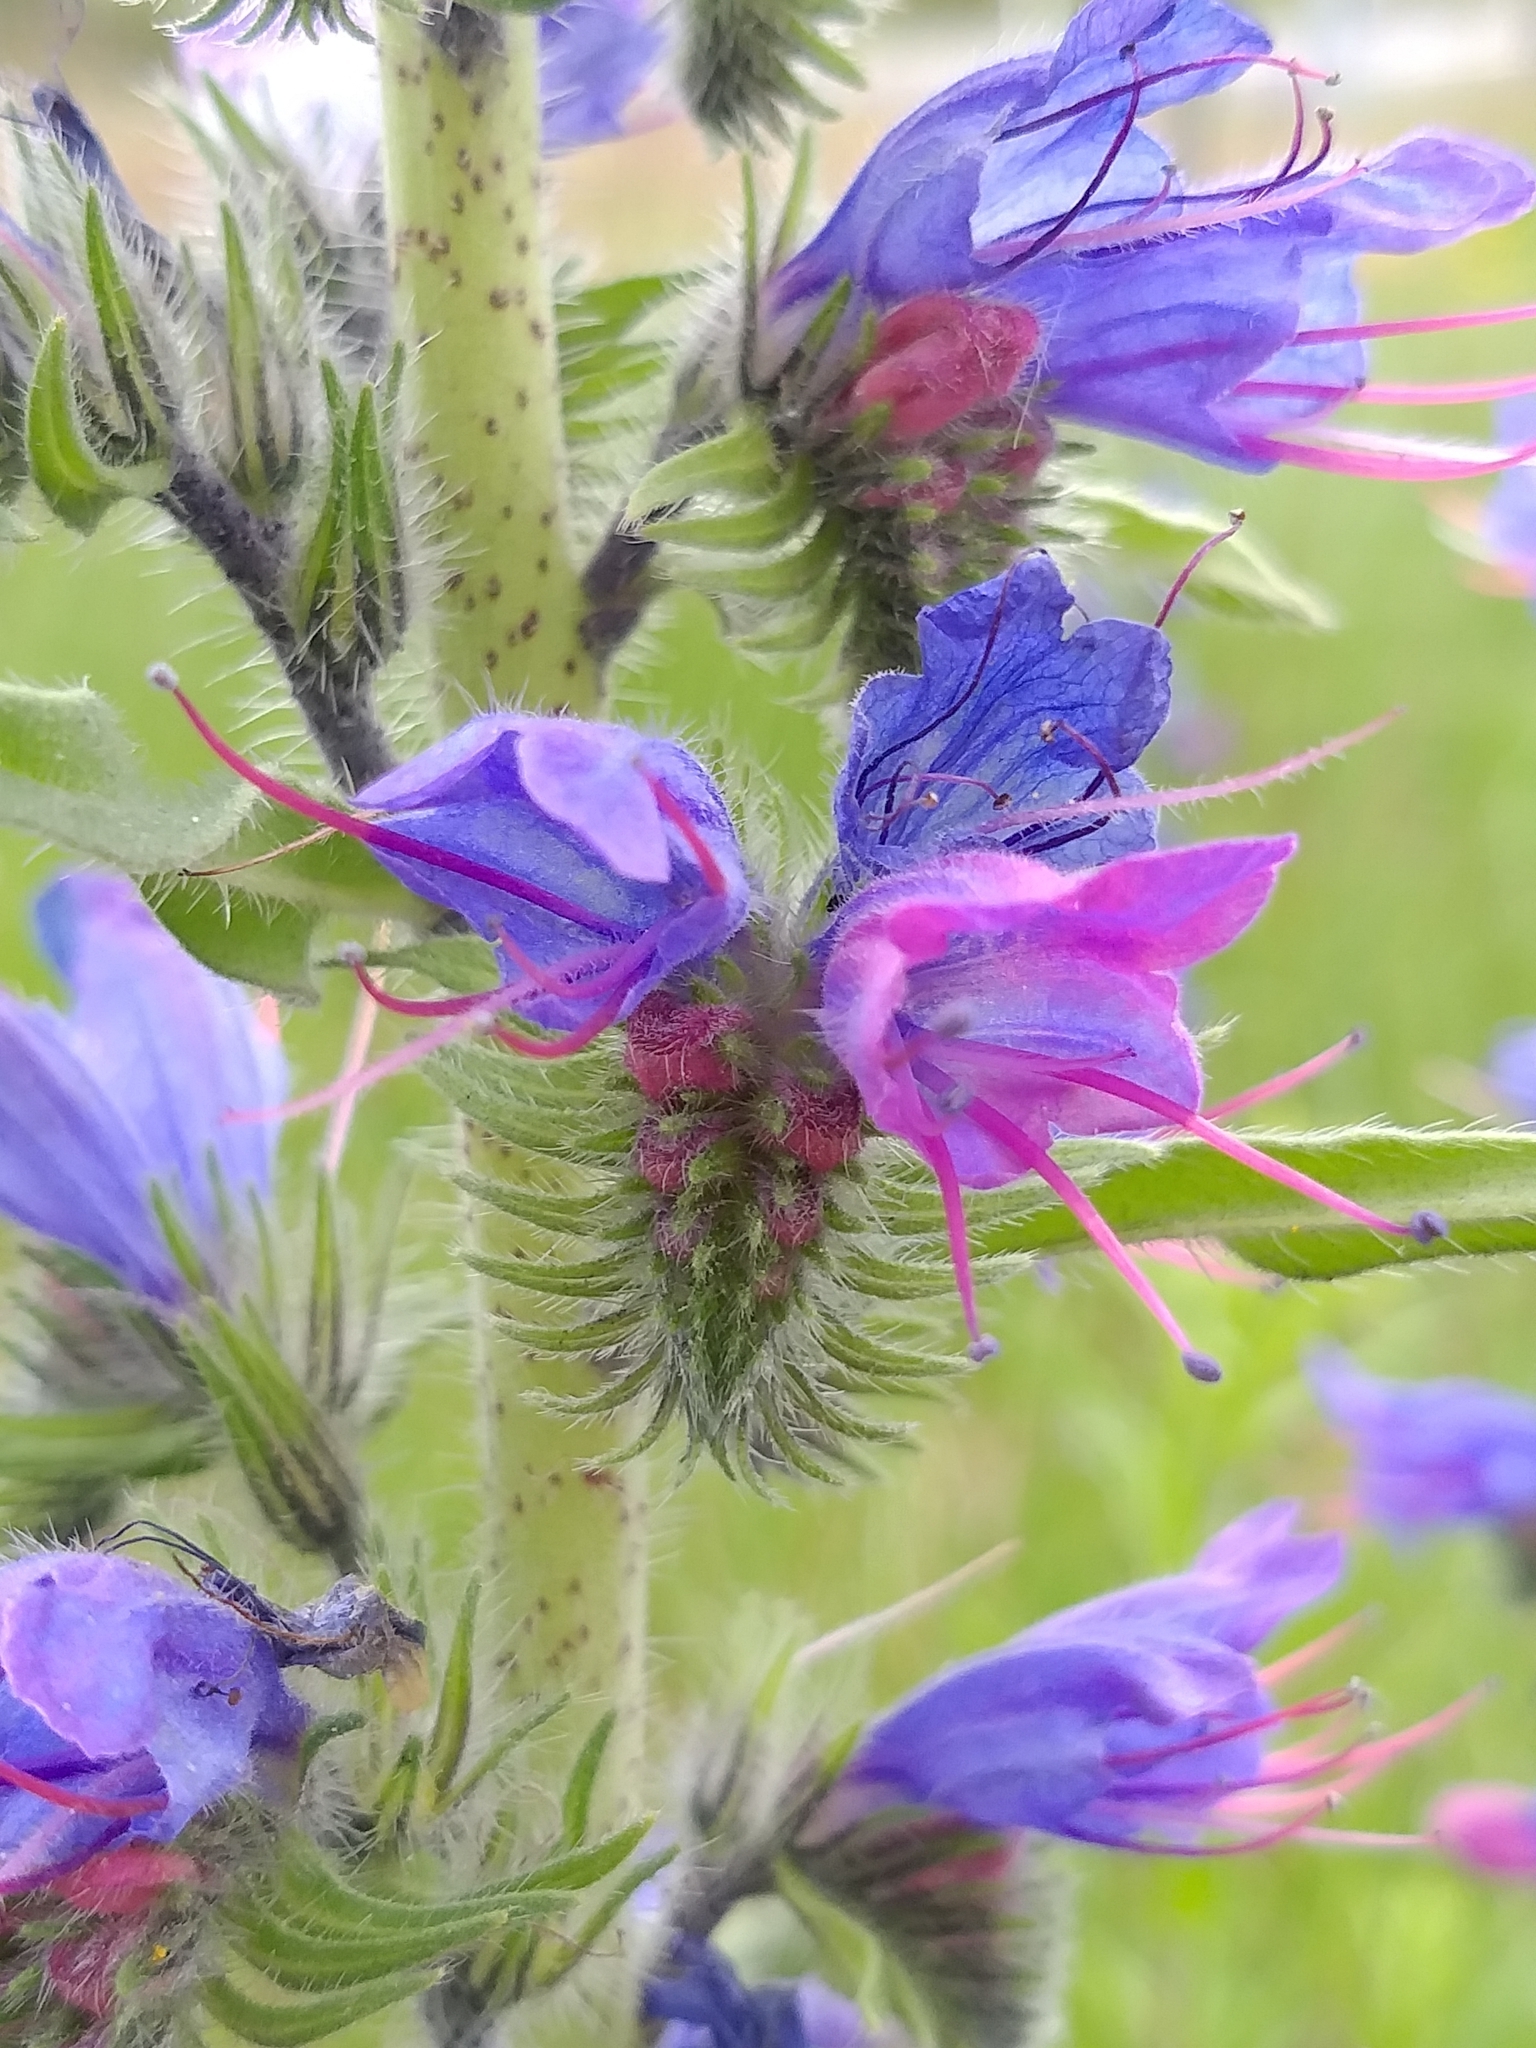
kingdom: Plantae
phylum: Tracheophyta
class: Magnoliopsida
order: Boraginales
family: Boraginaceae
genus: Echium
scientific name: Echium vulgare
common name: Common viper's bugloss
